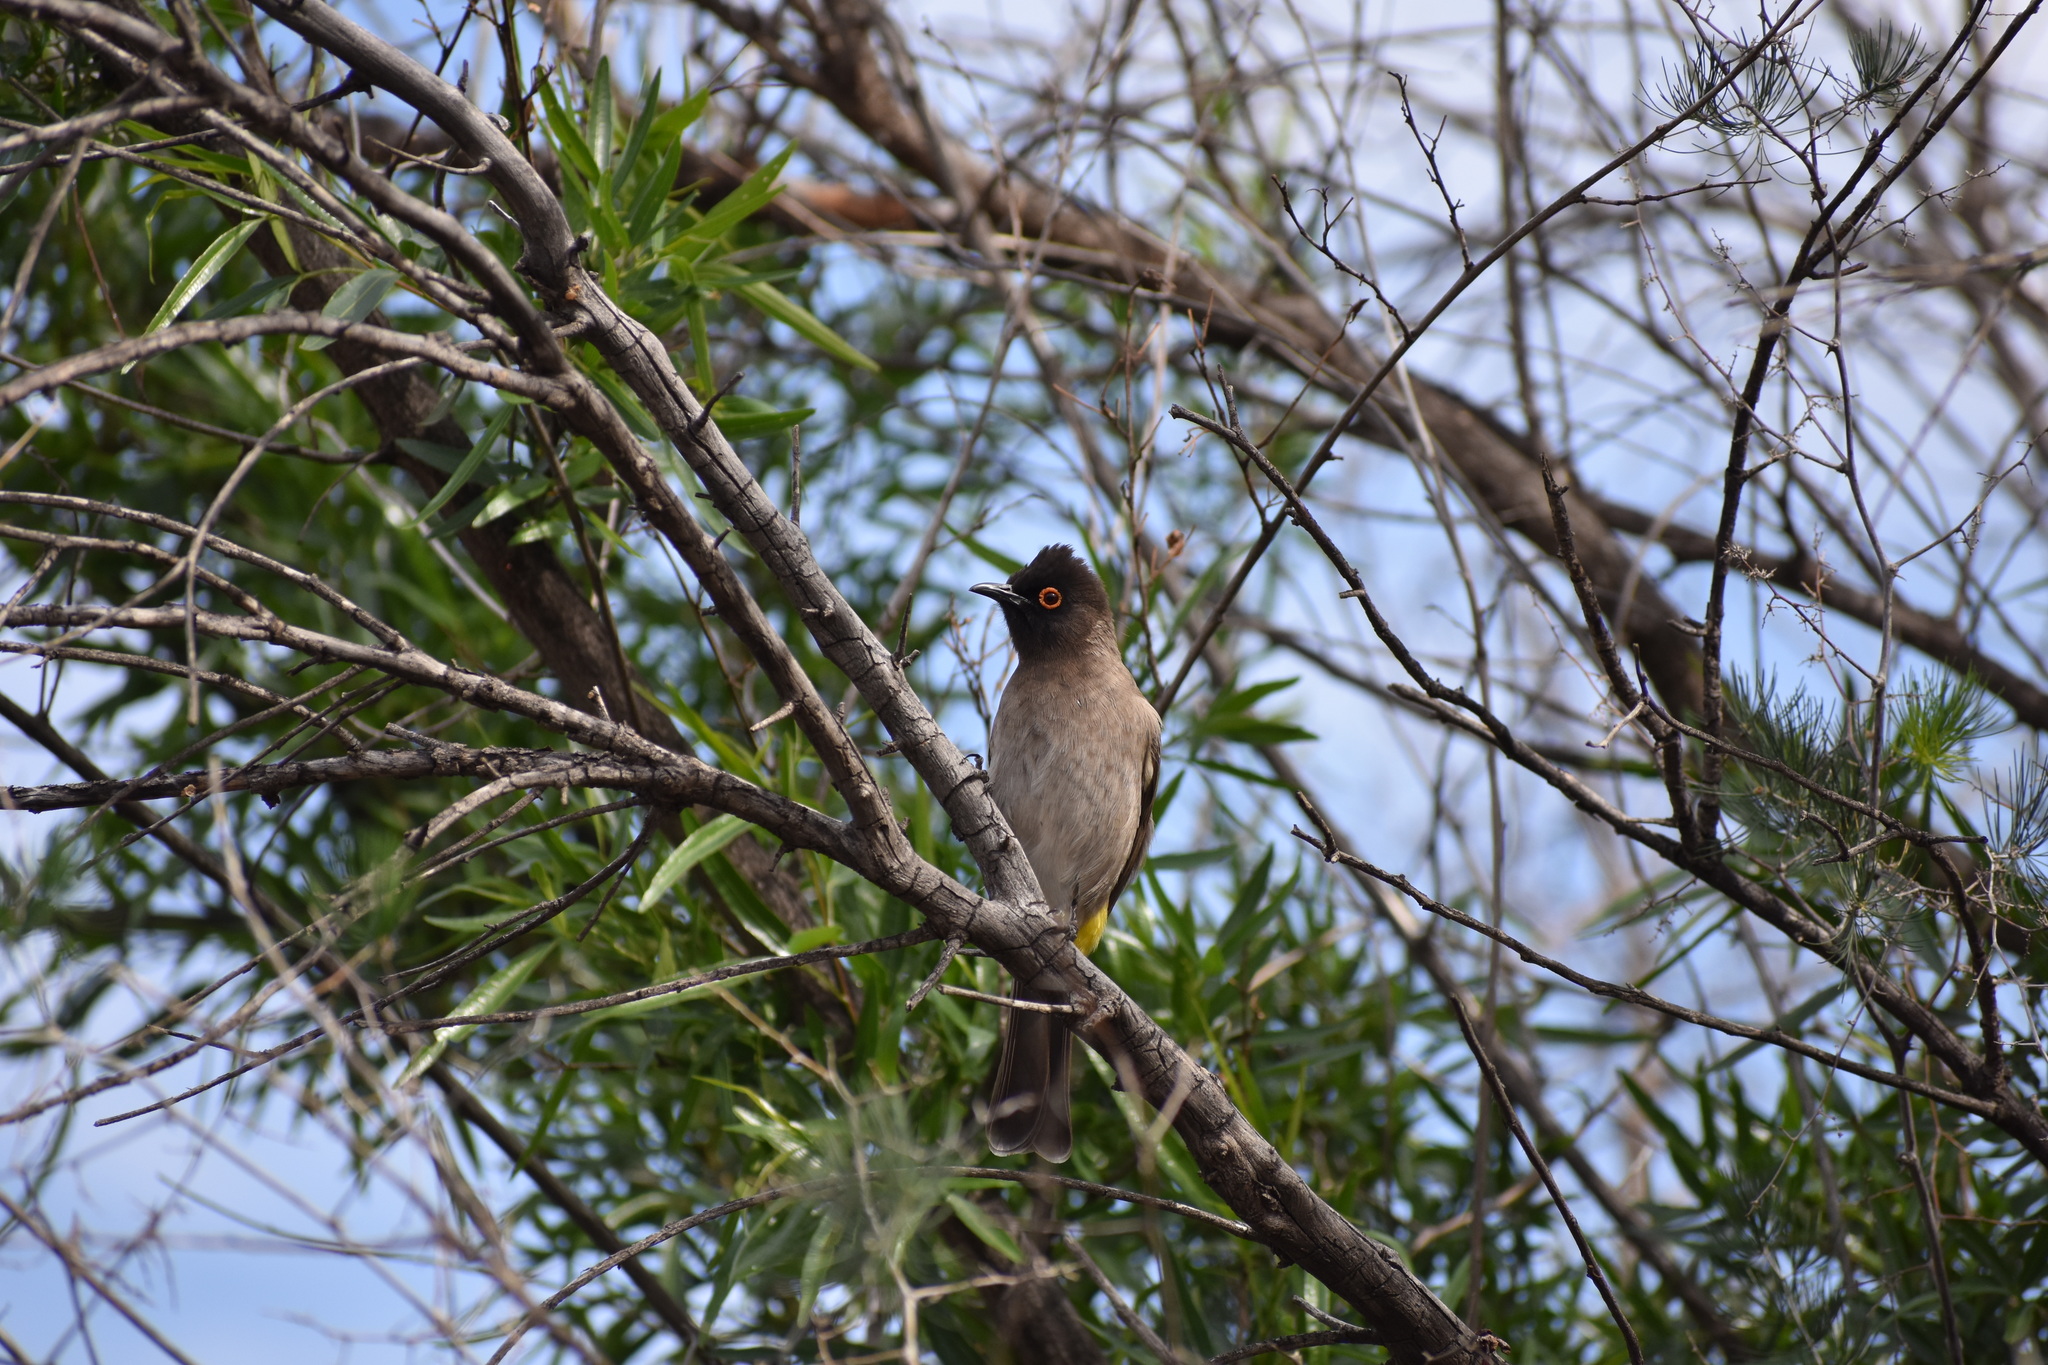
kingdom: Animalia
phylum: Chordata
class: Aves
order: Passeriformes
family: Pycnonotidae
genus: Pycnonotus
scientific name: Pycnonotus nigricans
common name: African red-eyed bulbul
